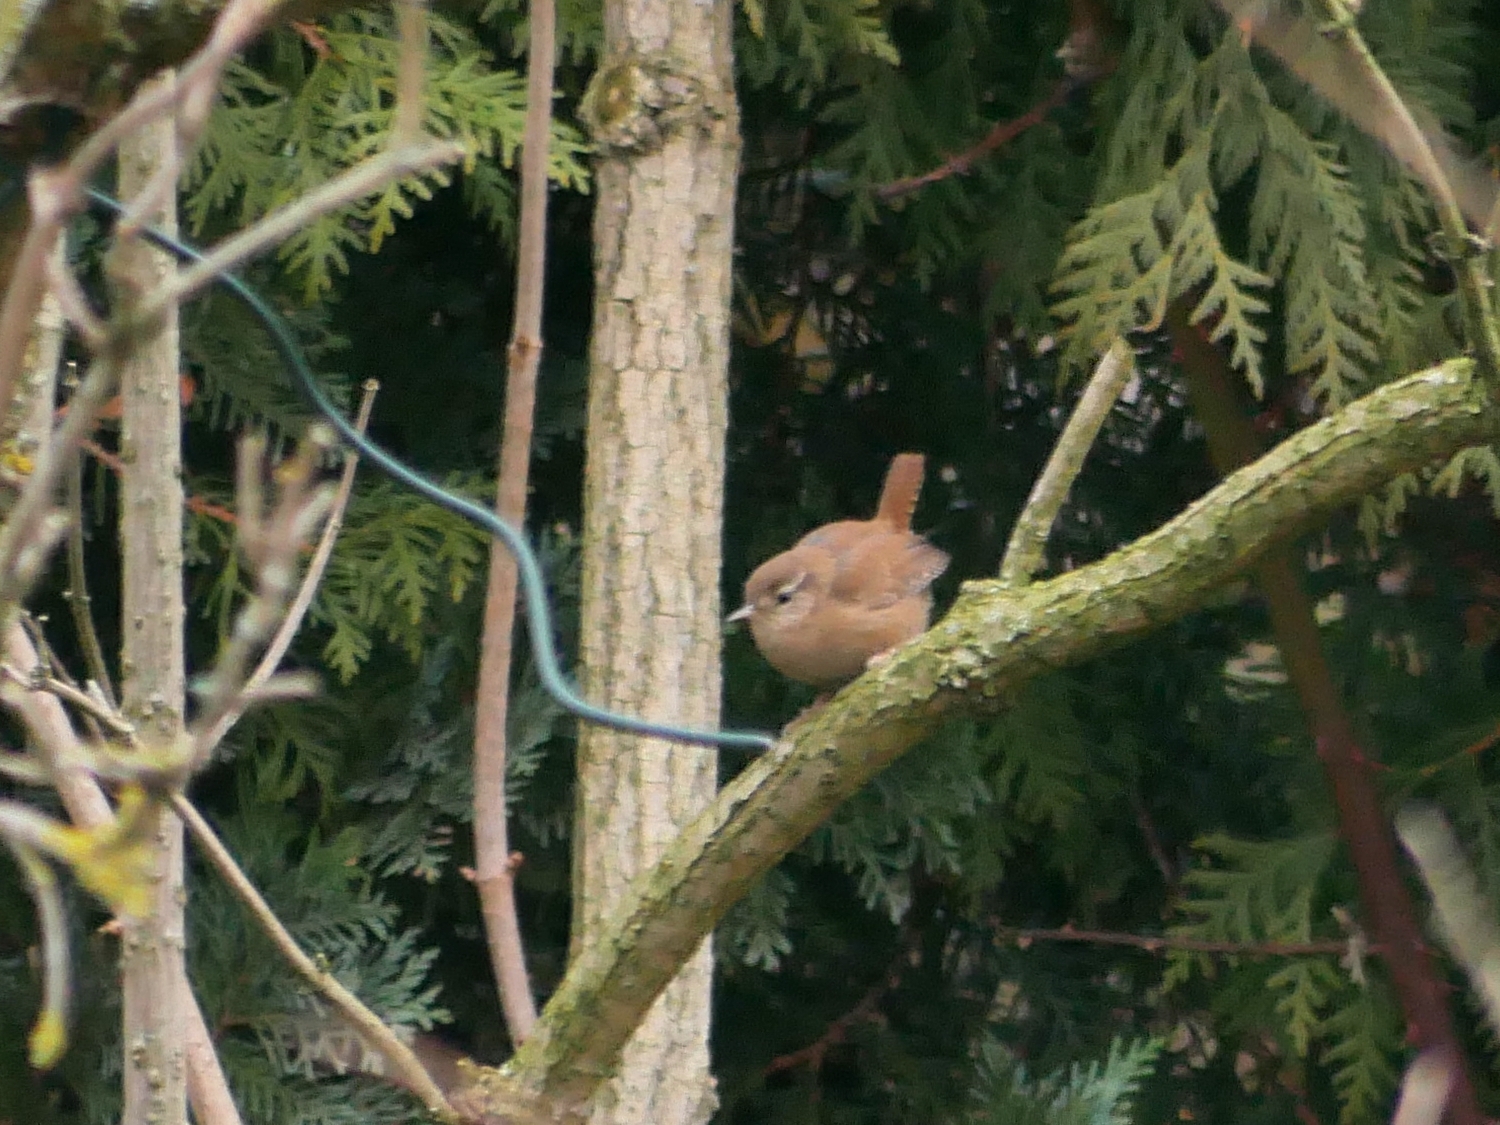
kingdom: Animalia
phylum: Chordata
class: Aves
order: Passeriformes
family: Troglodytidae
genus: Troglodytes
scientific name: Troglodytes troglodytes
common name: Eurasian wren
